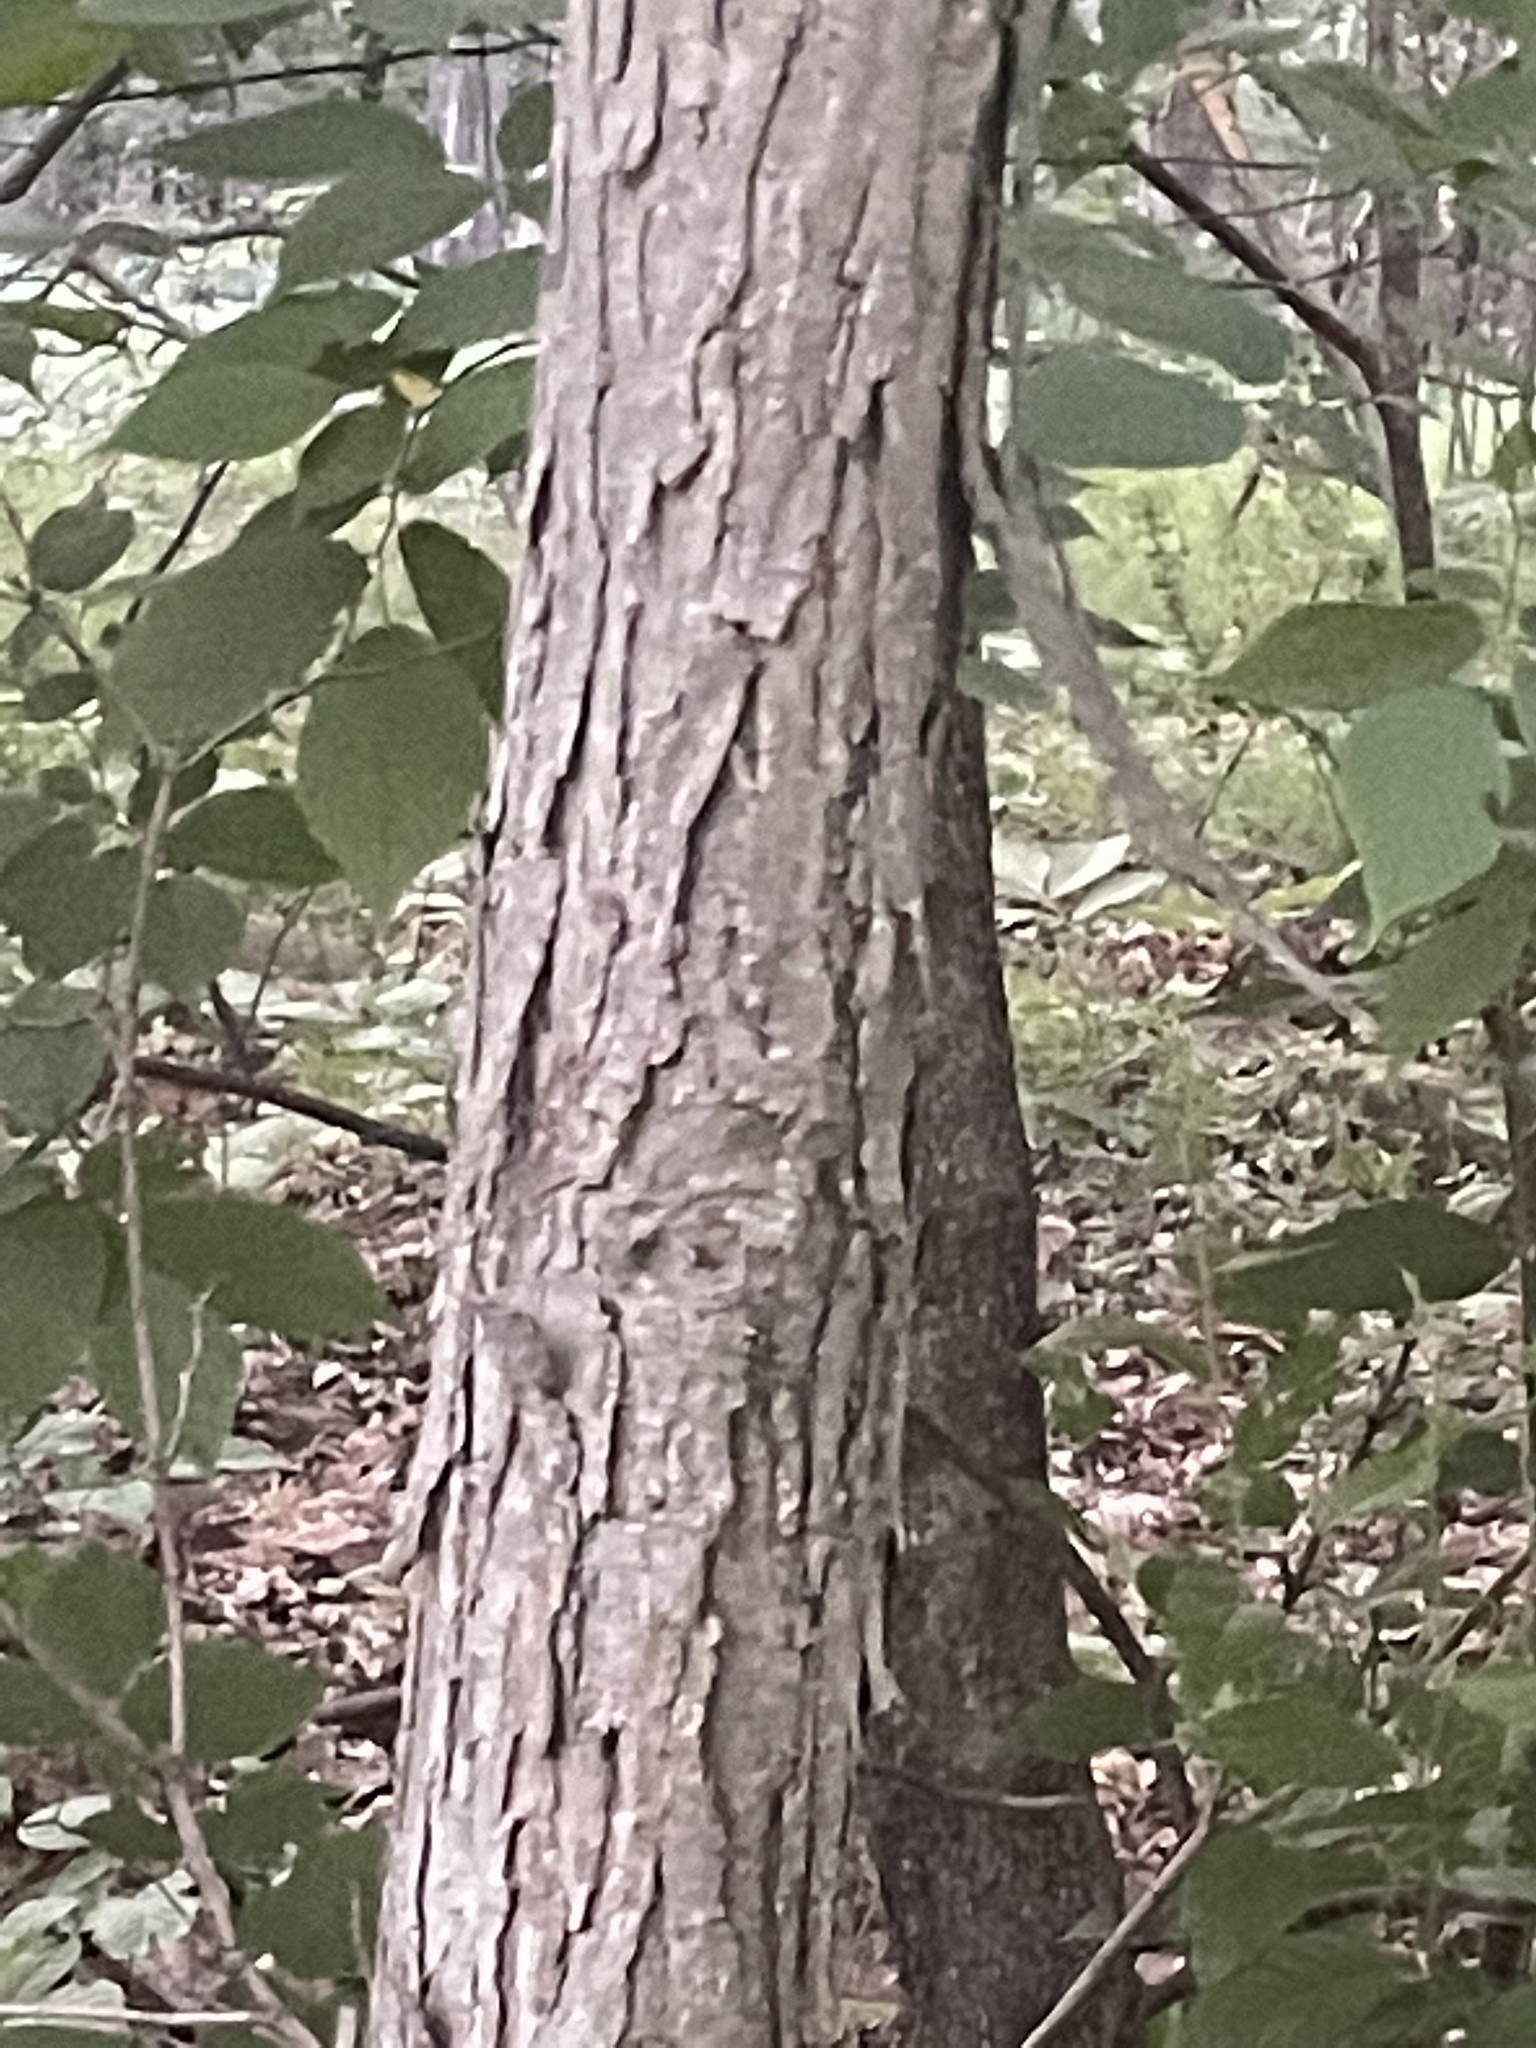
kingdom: Plantae
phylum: Tracheophyta
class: Magnoliopsida
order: Fagales
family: Juglandaceae
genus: Carya
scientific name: Carya ovata
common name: Shagbark hickory
